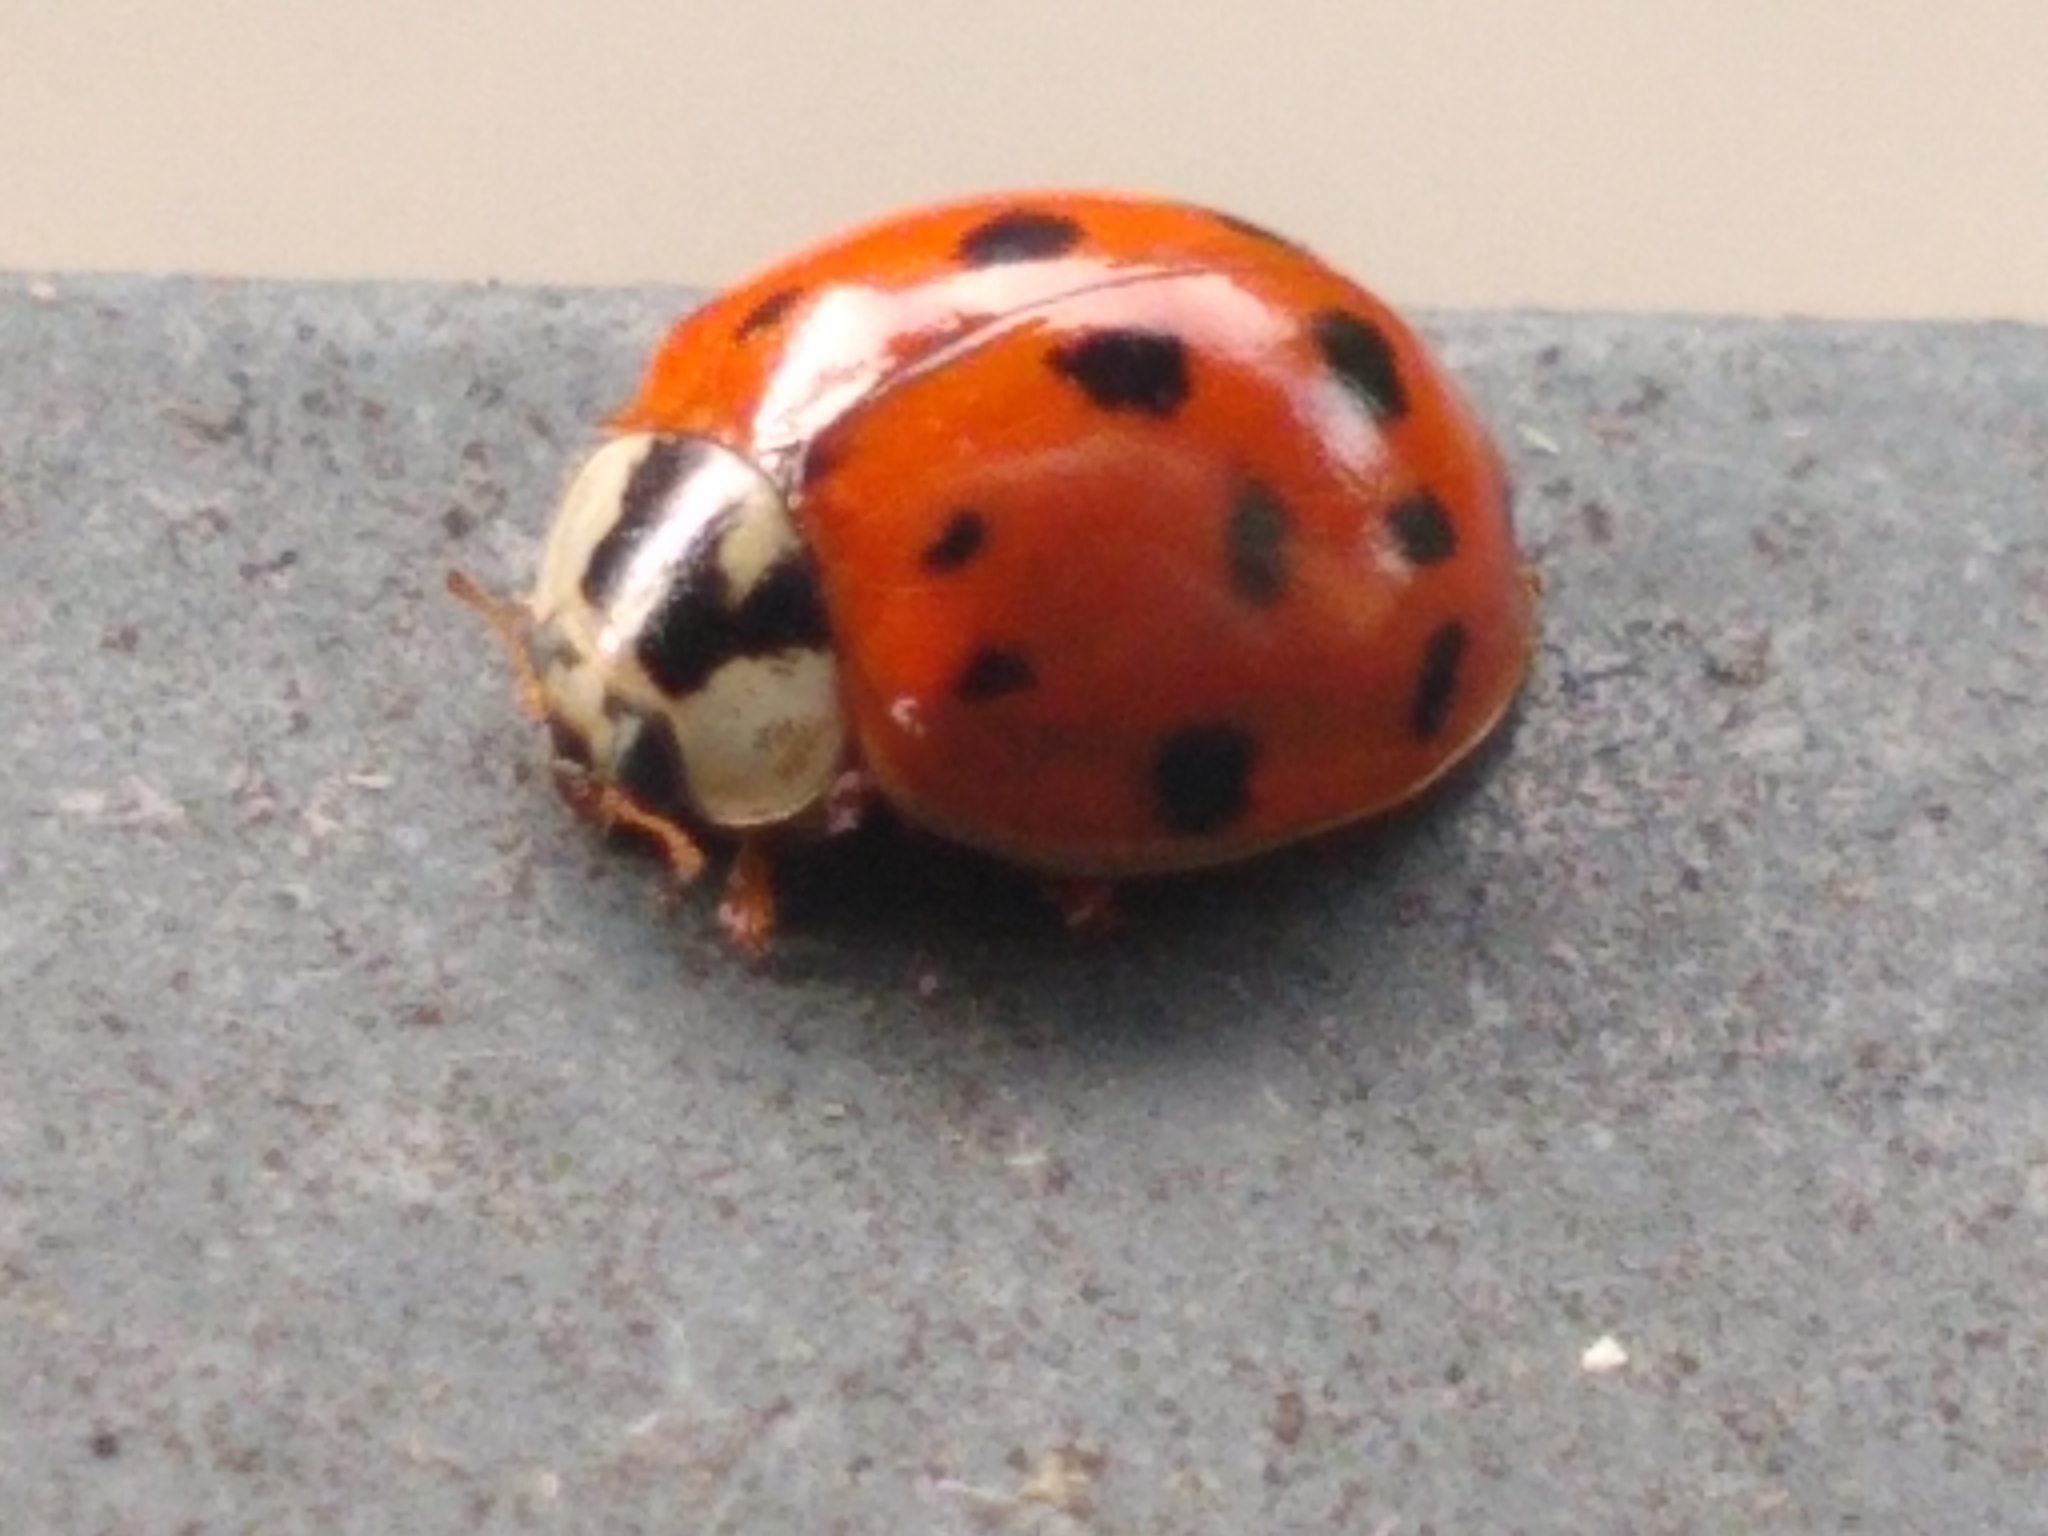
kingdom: Animalia
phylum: Arthropoda
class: Insecta
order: Coleoptera
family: Coccinellidae
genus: Harmonia
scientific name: Harmonia axyridis
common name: Harlequin ladybird
